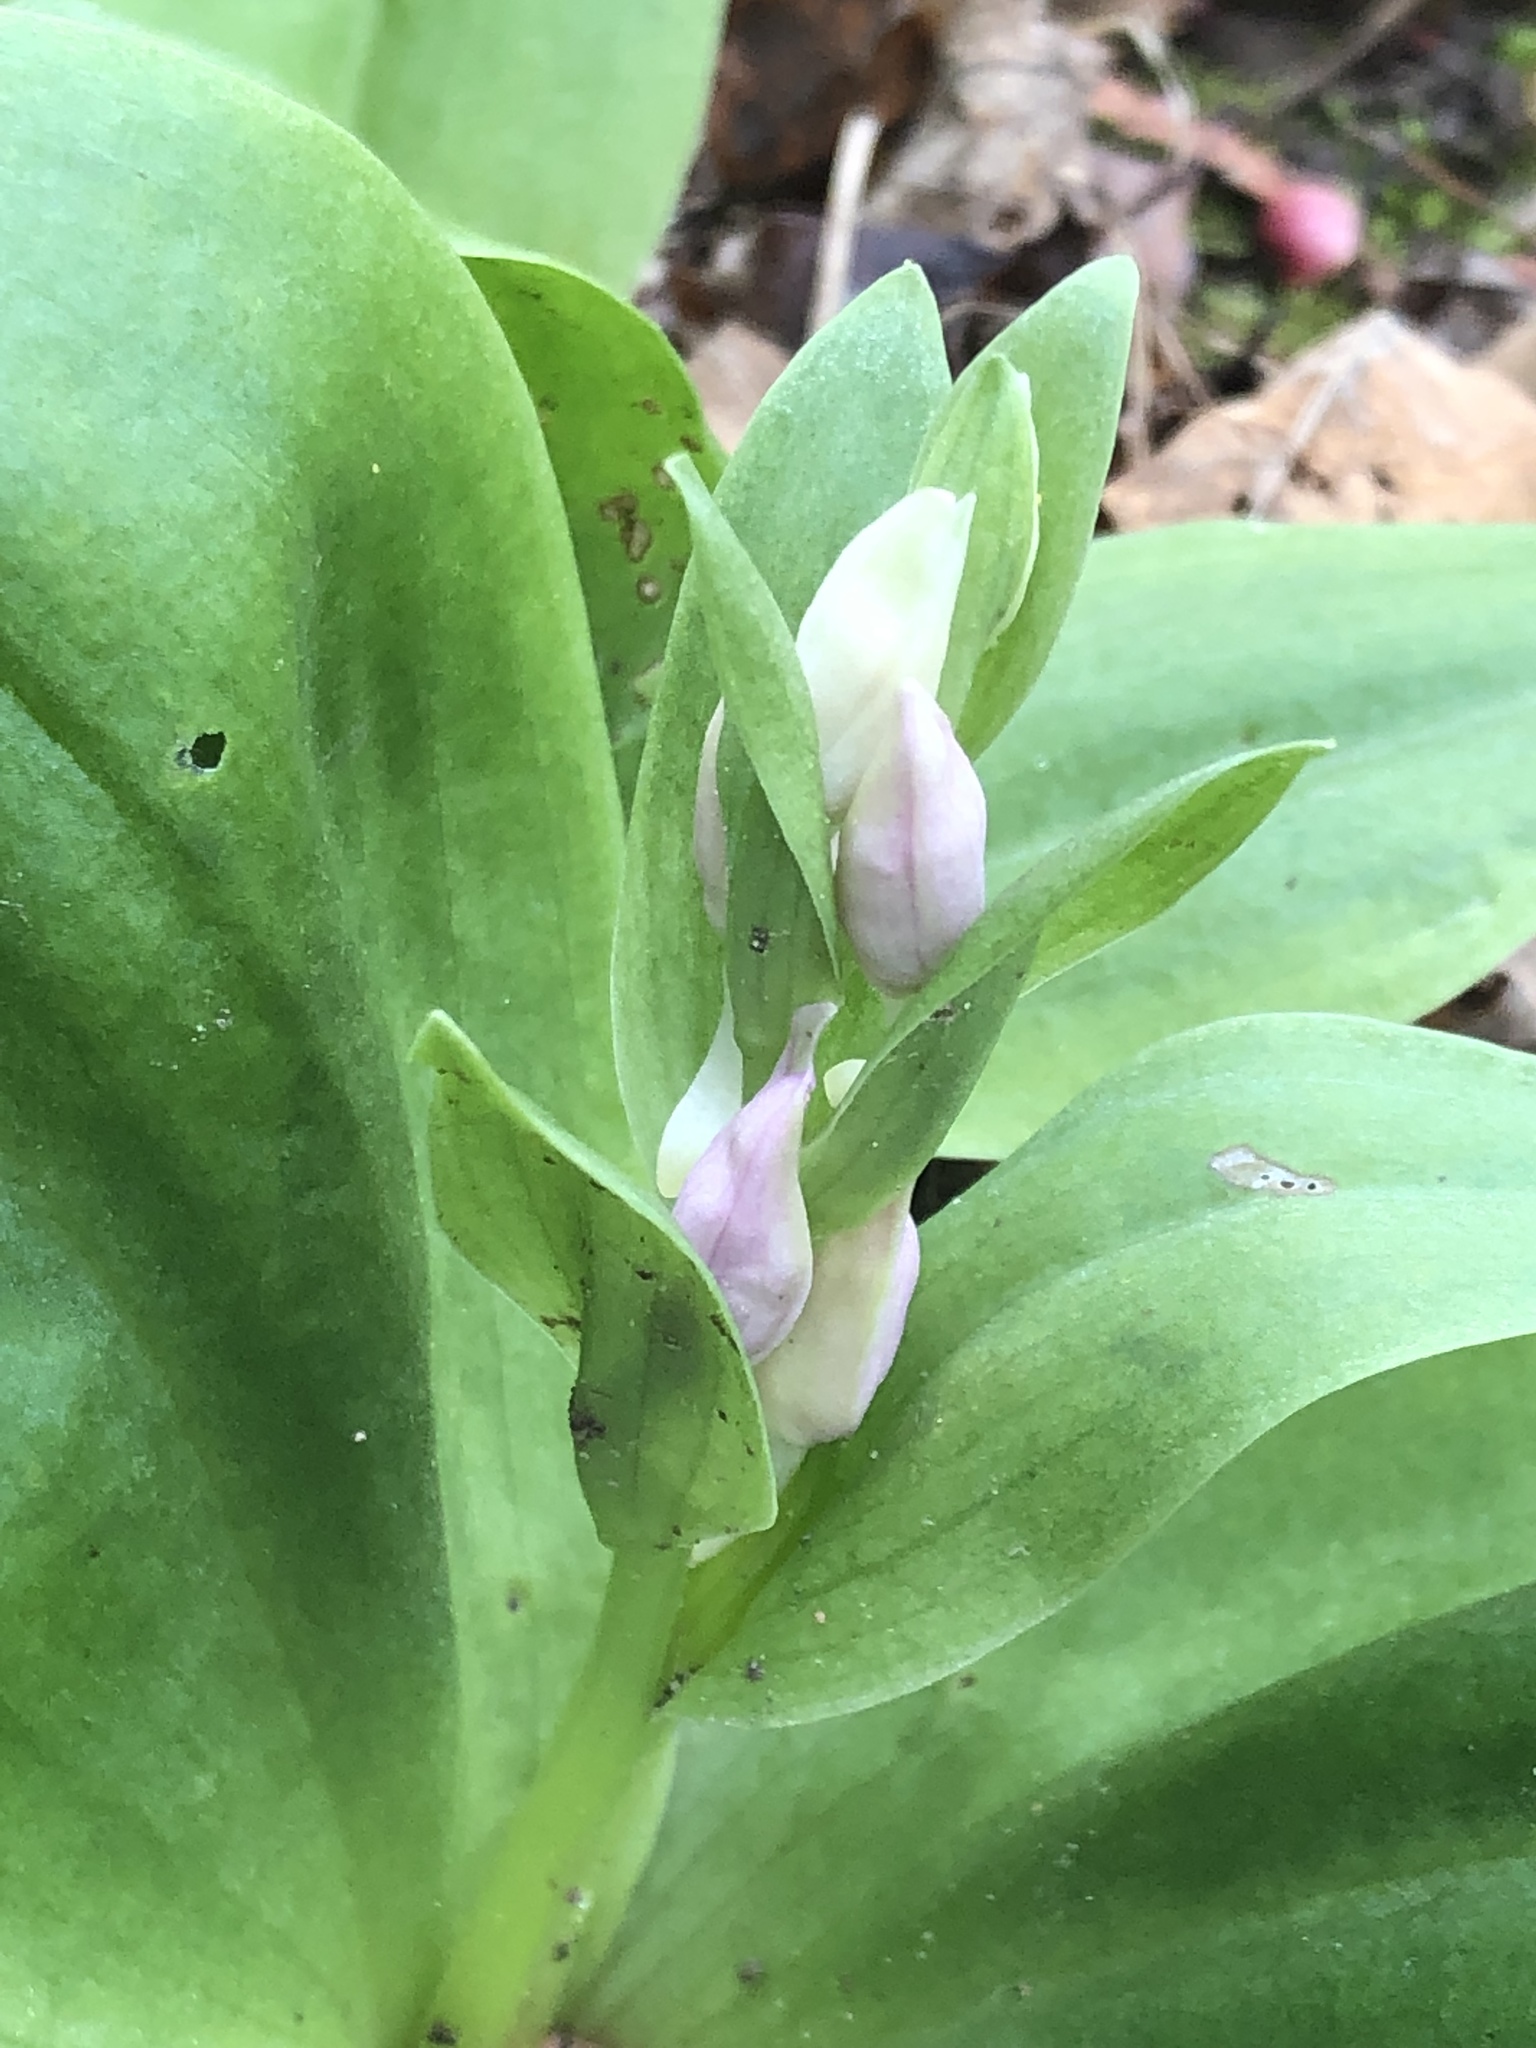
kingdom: Plantae
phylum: Tracheophyta
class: Liliopsida
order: Asparagales
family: Orchidaceae
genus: Galearis
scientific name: Galearis spectabilis
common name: Purple-hooded orchis
